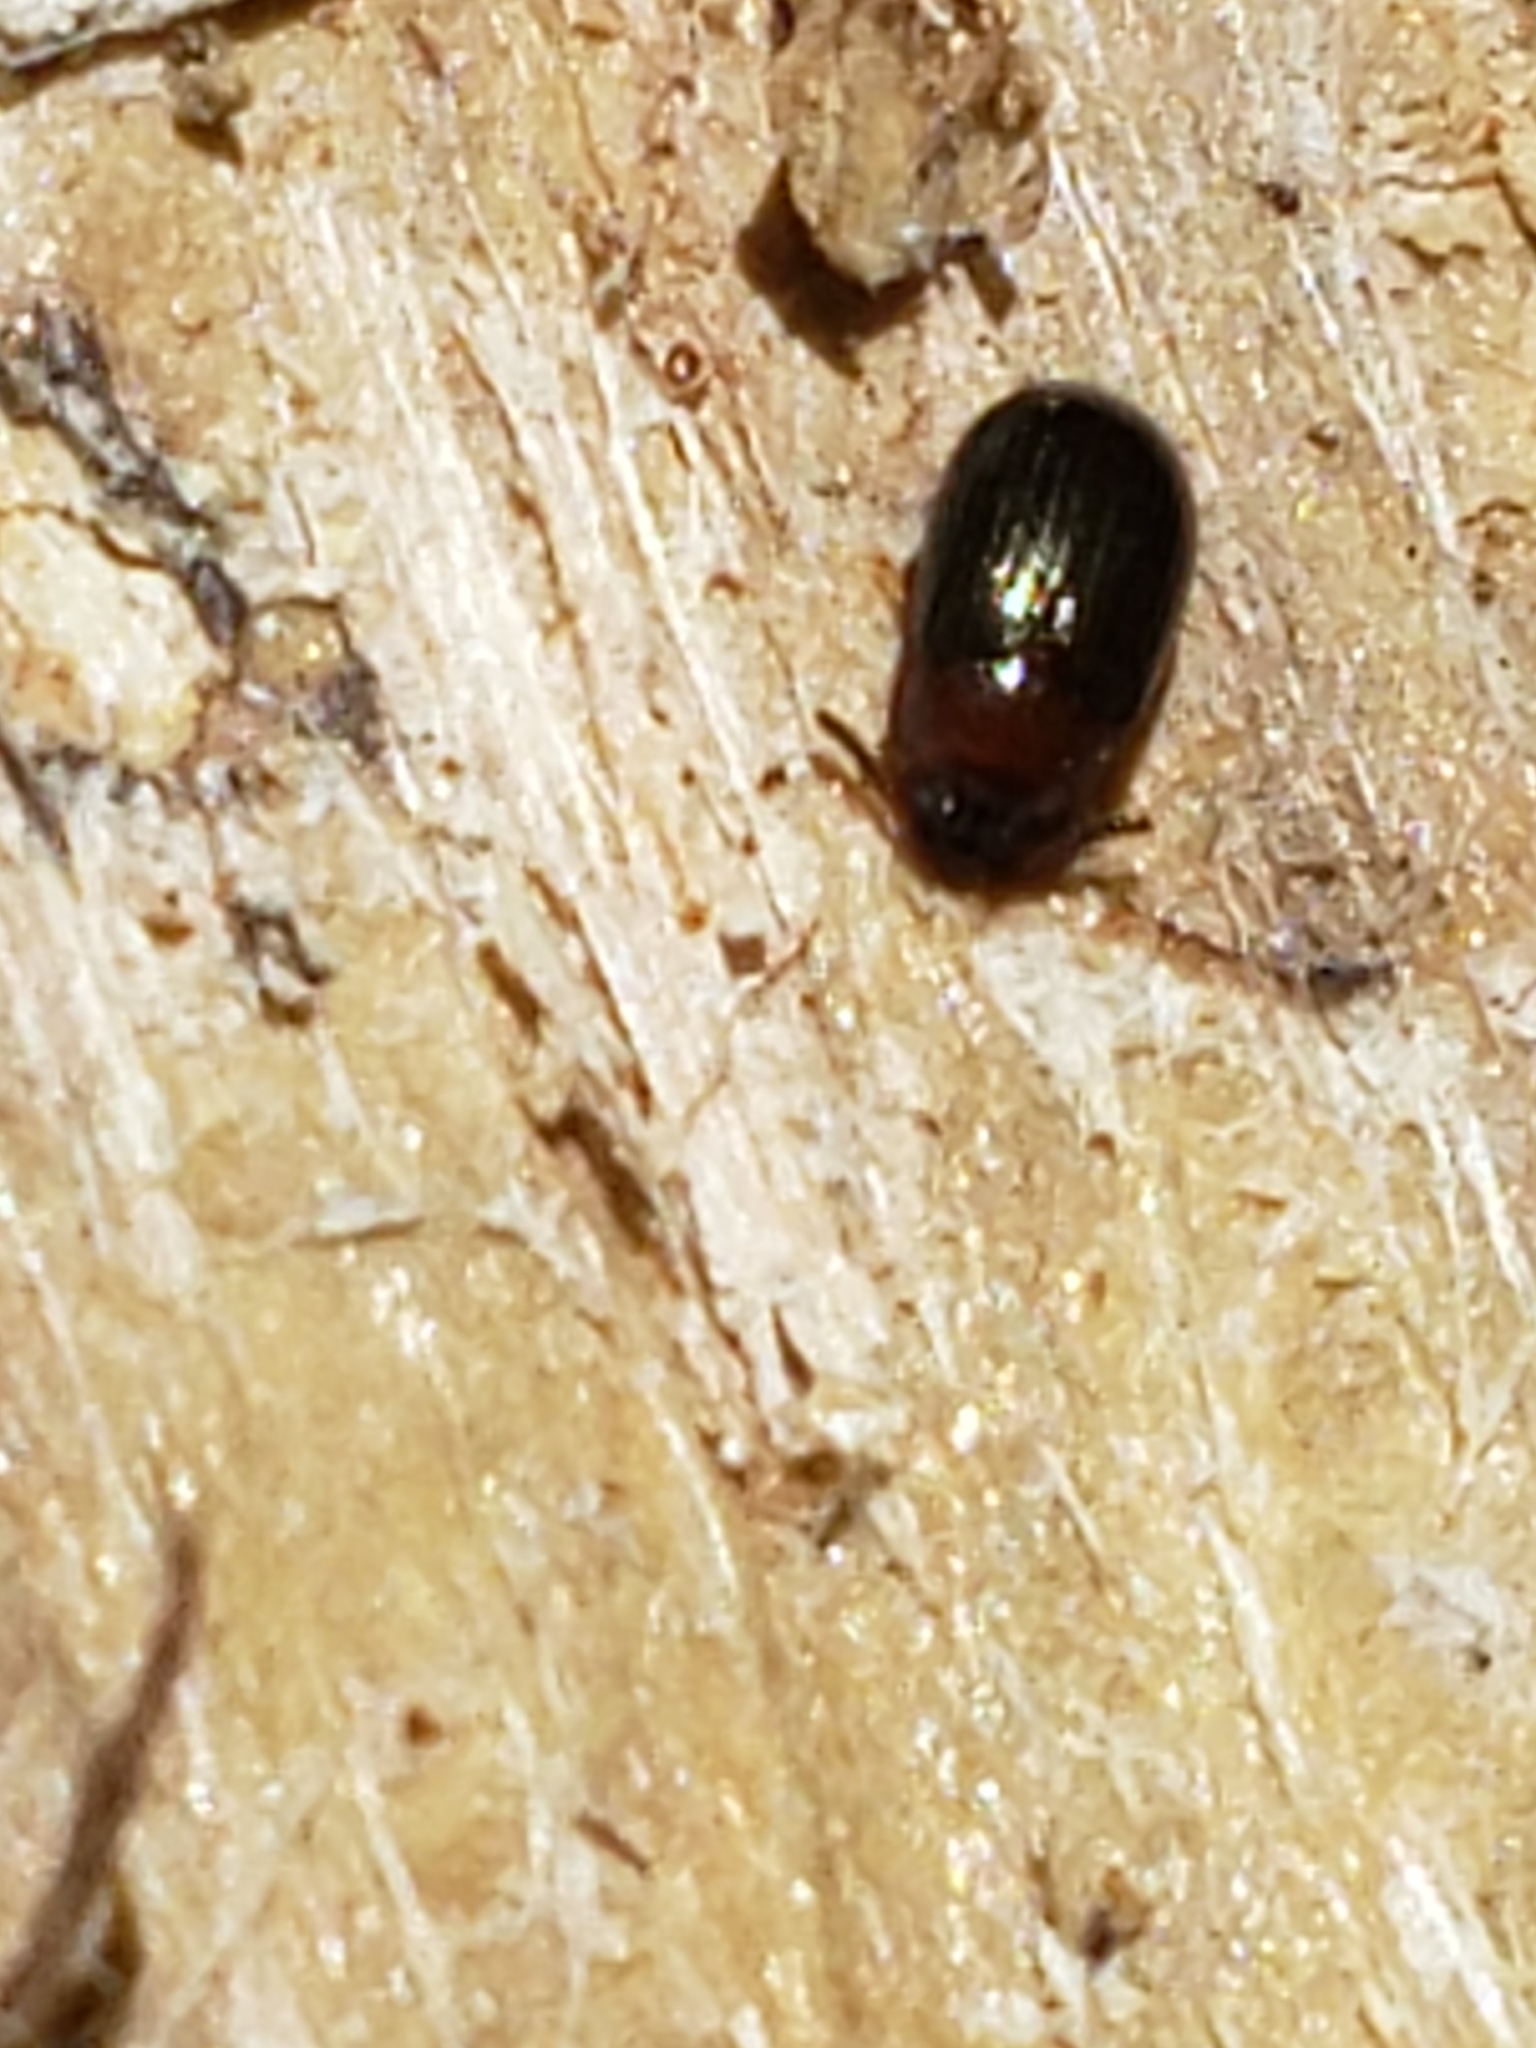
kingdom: Animalia
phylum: Arthropoda
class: Insecta
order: Coleoptera
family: Tenebrionidae
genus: Neomida
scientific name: Neomida bicornis
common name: Two-horned darkling beetle
